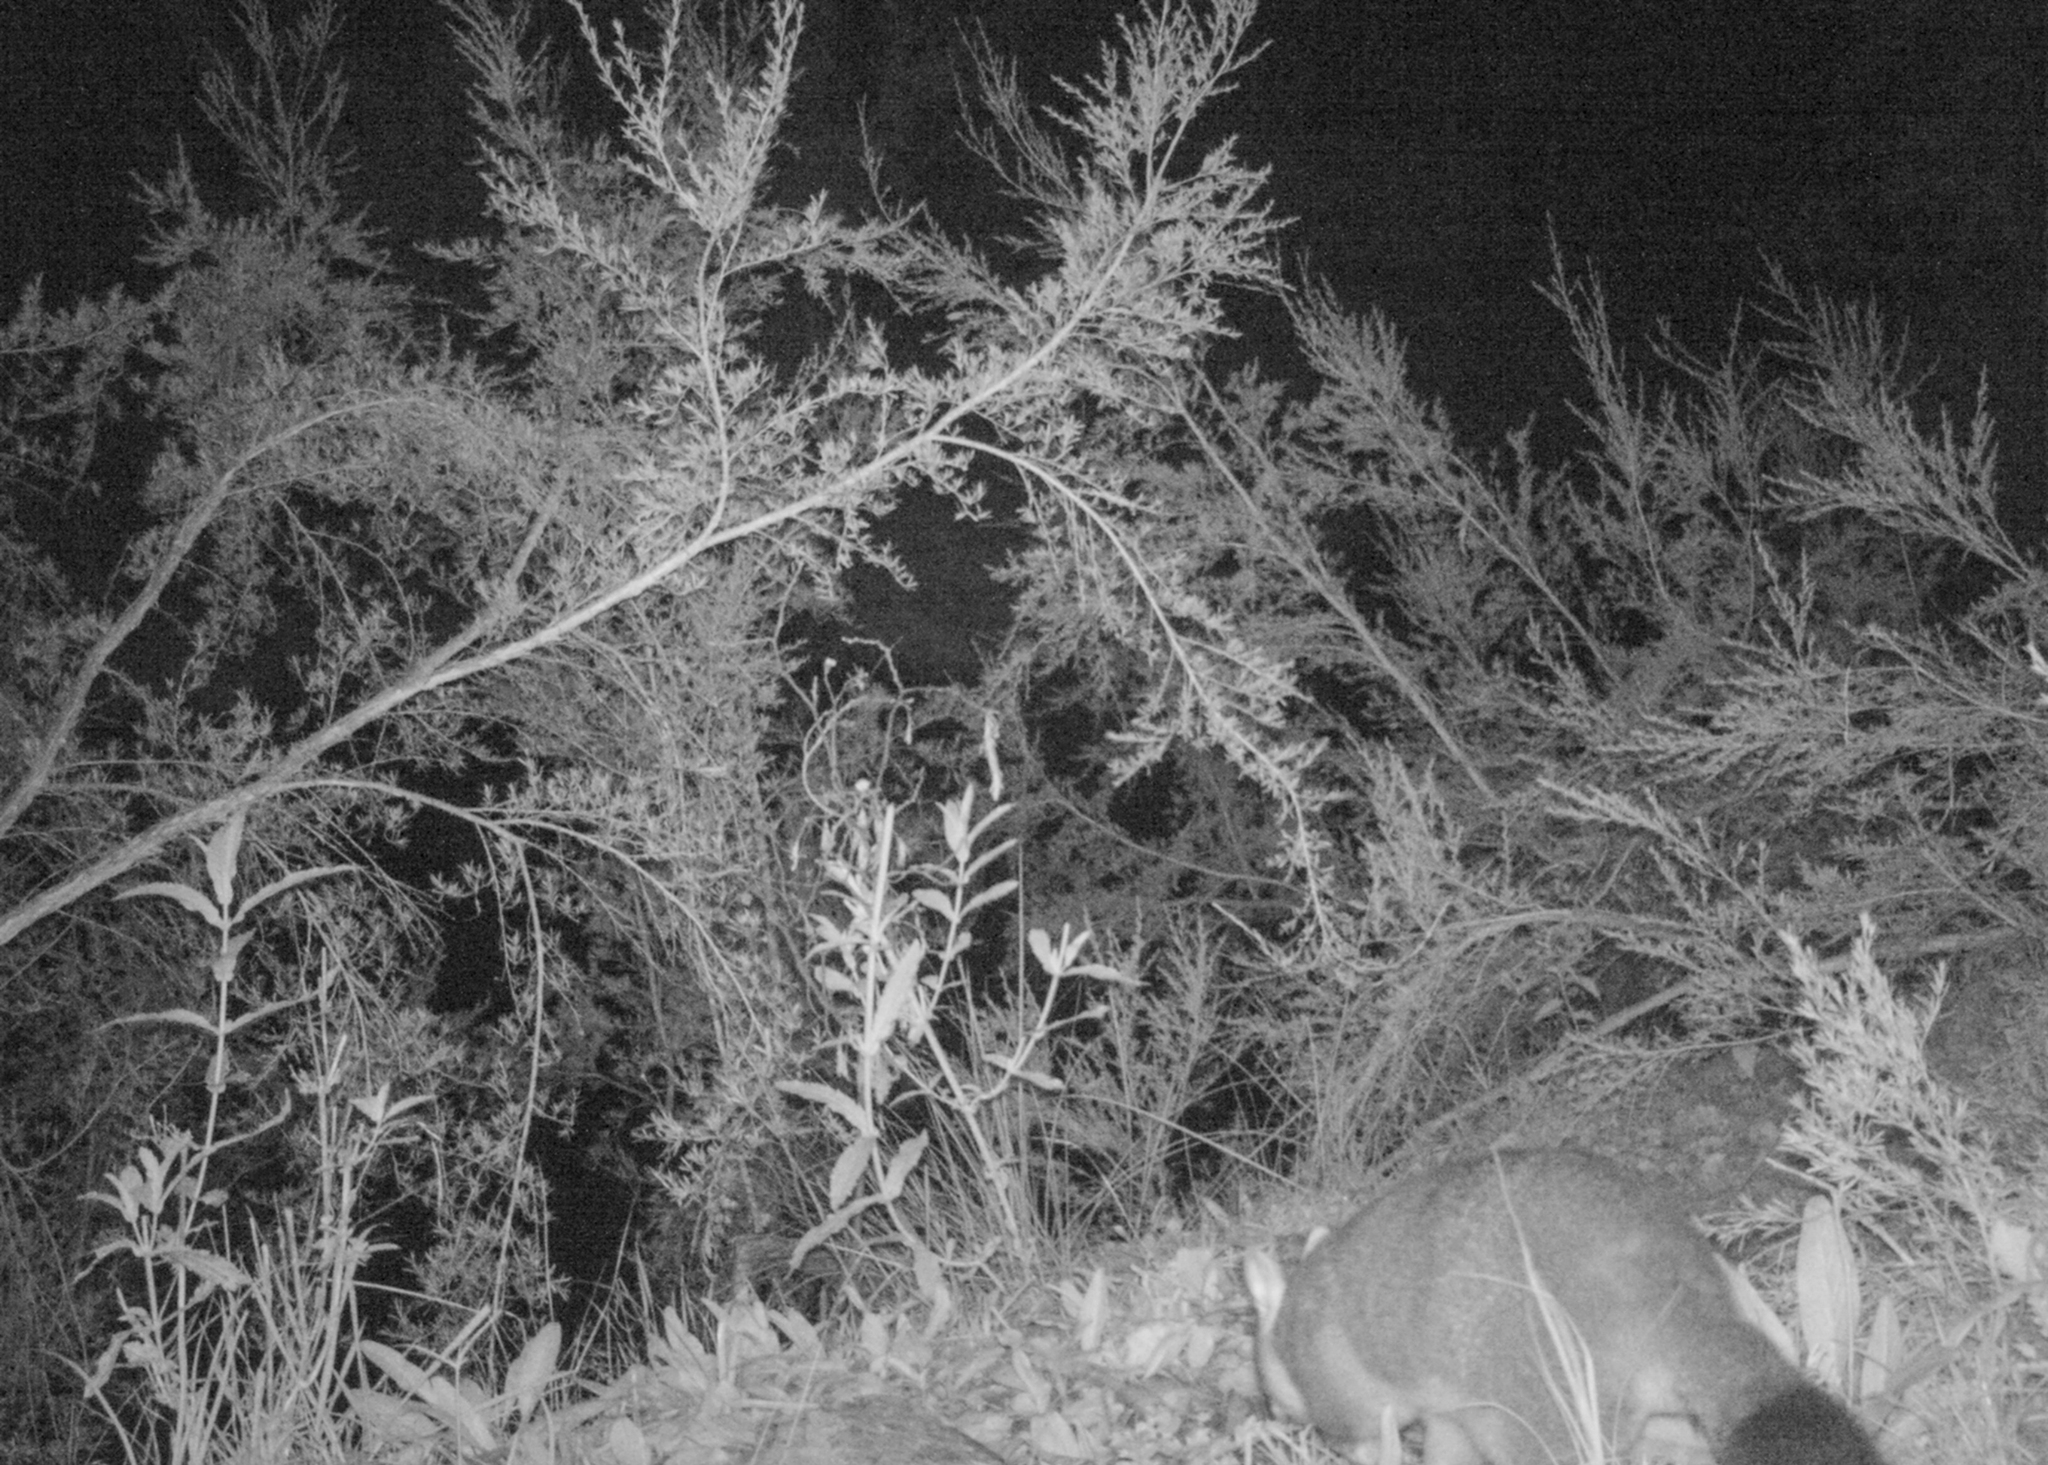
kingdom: Animalia
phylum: Chordata
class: Mammalia
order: Diprotodontia
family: Phalangeridae
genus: Trichosurus
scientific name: Trichosurus vulpecula
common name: Common brushtail
